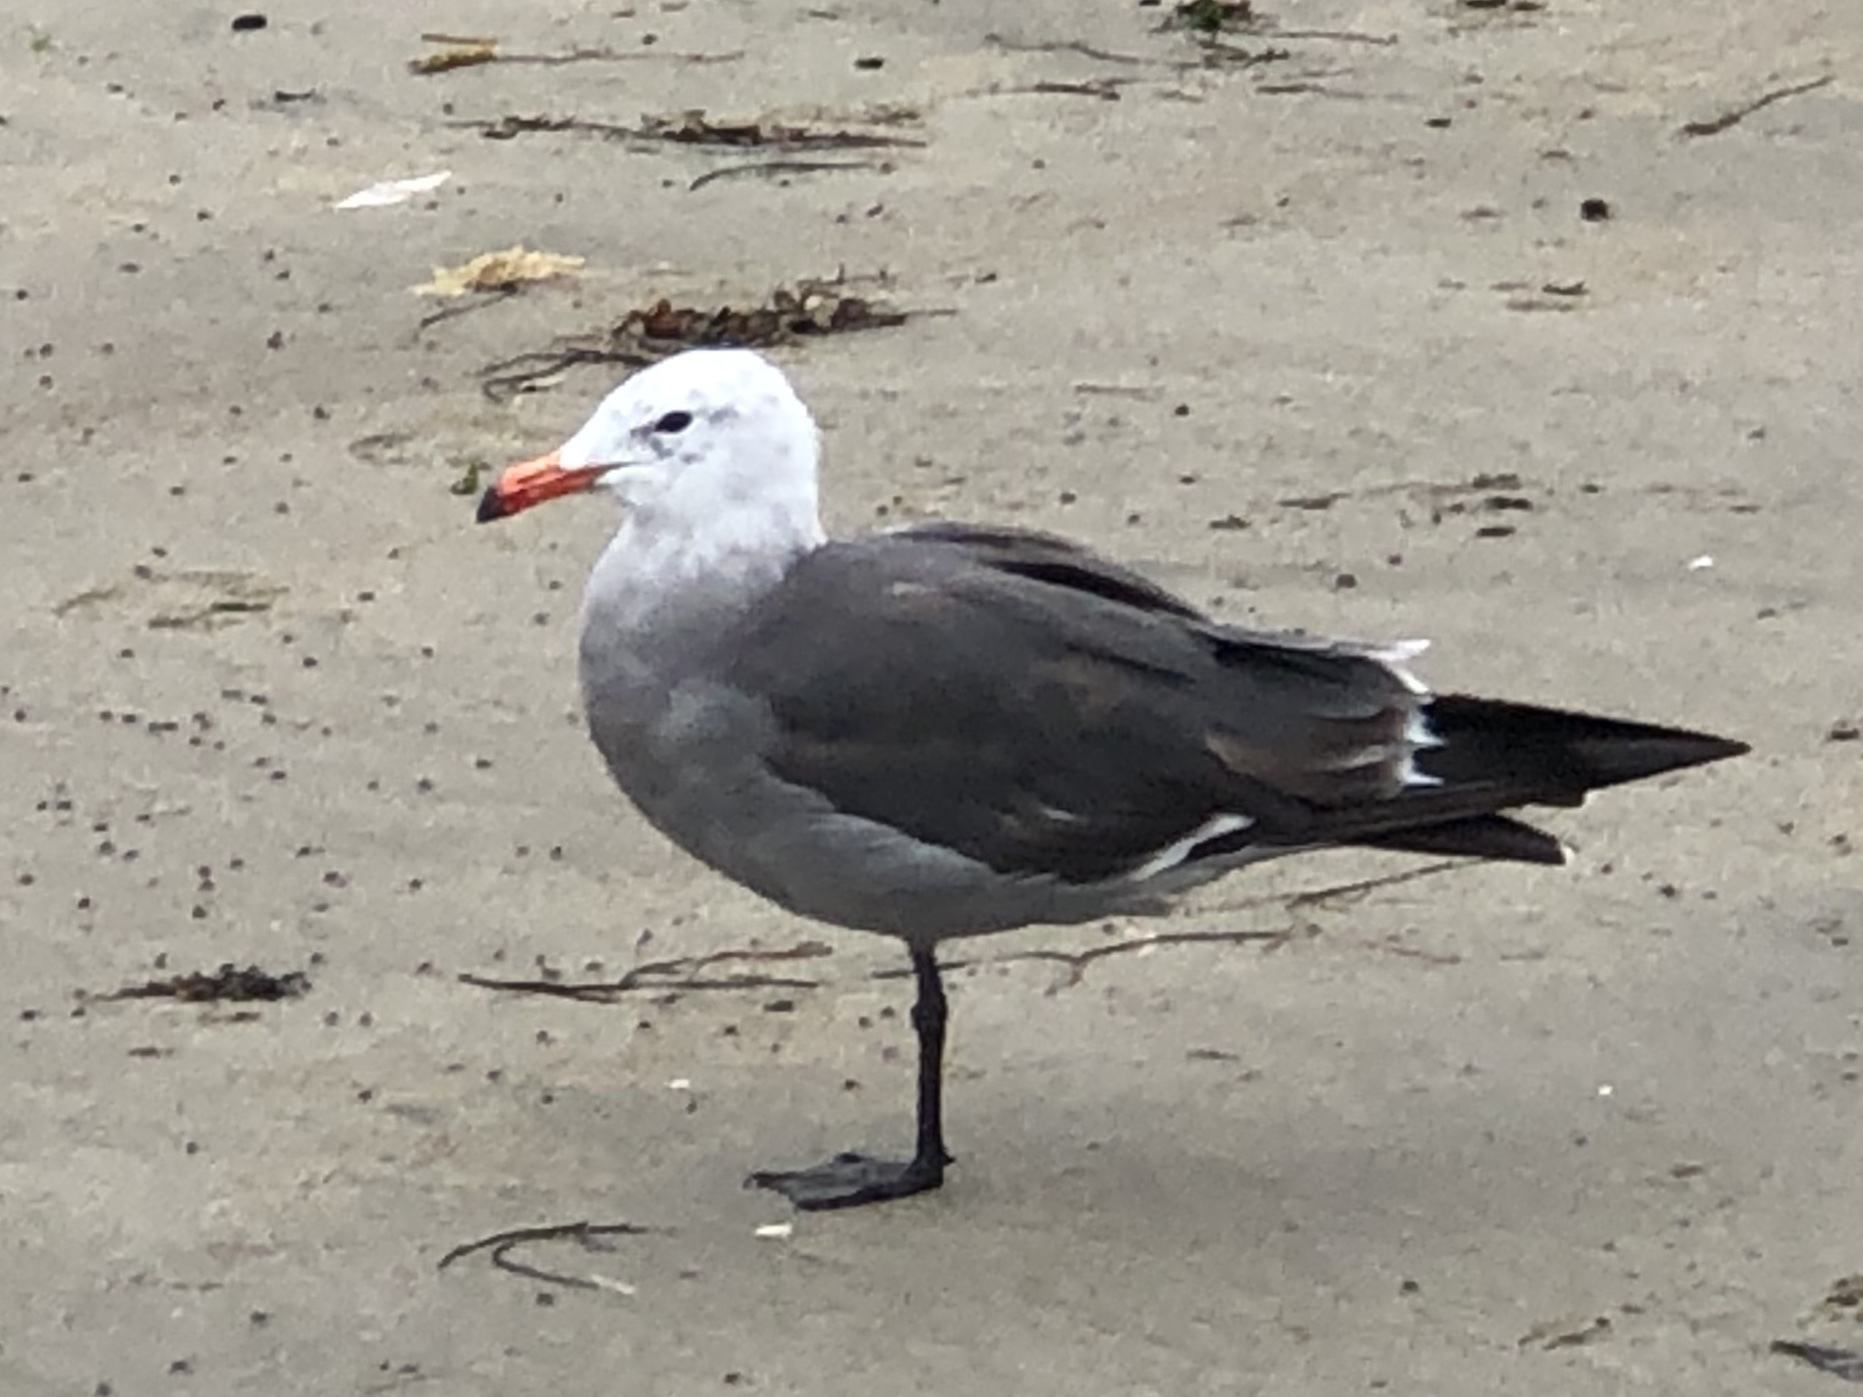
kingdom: Animalia
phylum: Chordata
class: Aves
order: Charadriiformes
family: Laridae
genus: Larus
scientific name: Larus heermanni
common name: Heermann's gull
